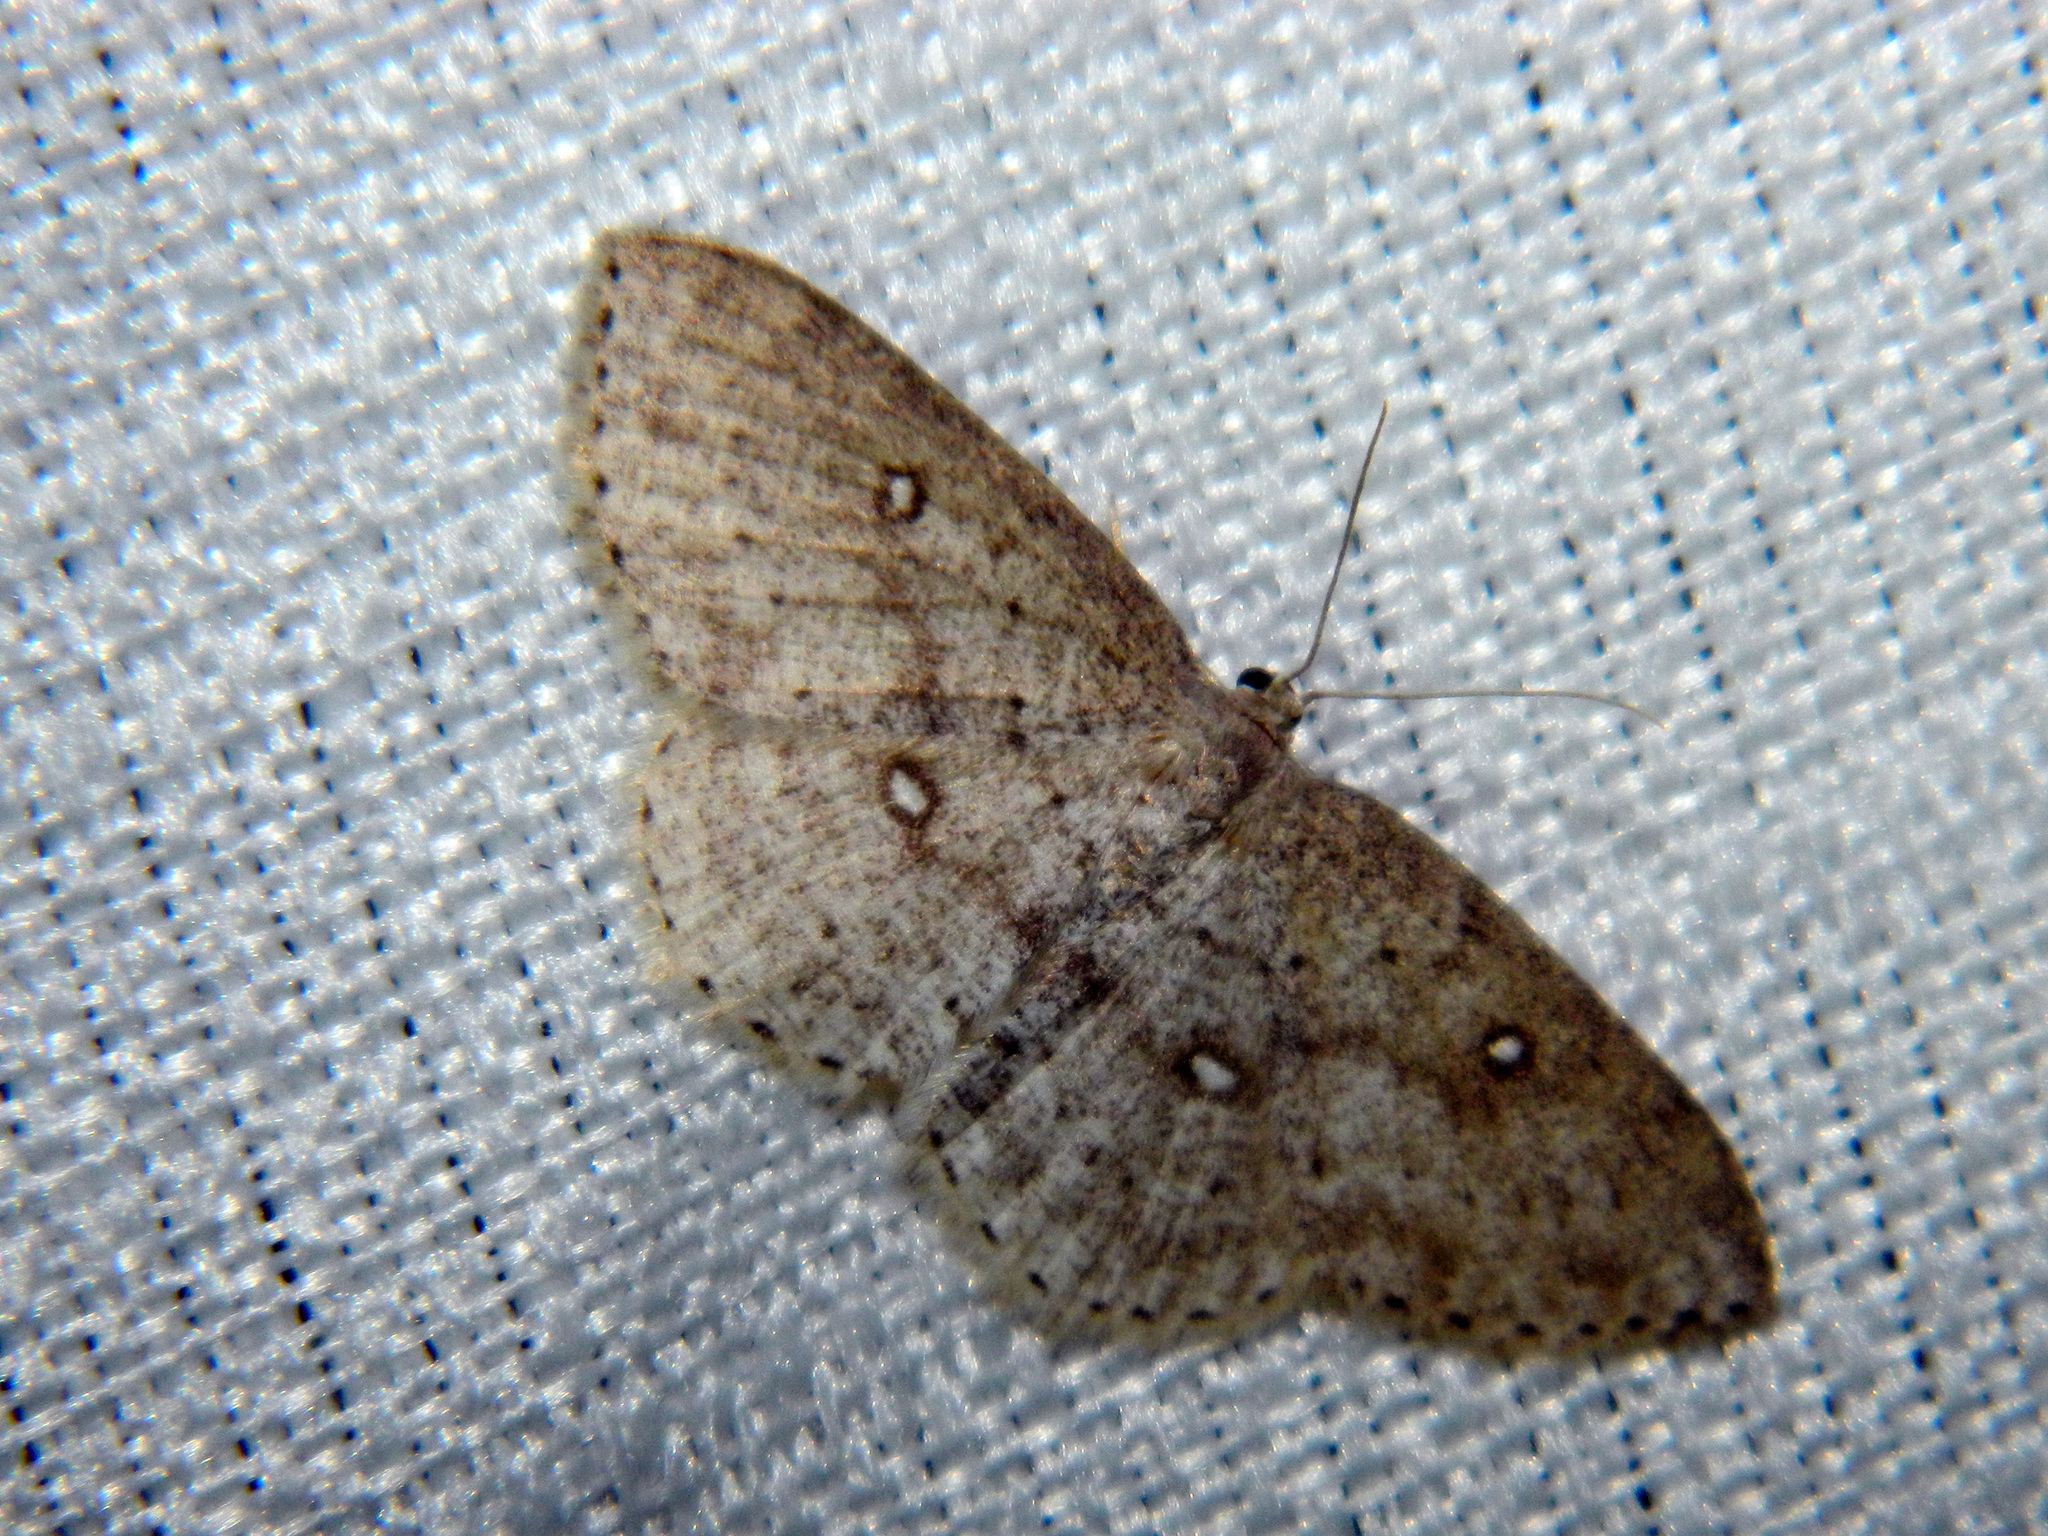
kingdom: Animalia
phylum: Arthropoda
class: Insecta
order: Lepidoptera
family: Geometridae
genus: Cyclophora
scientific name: Cyclophora pendulinaria
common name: Sweet fern geometer
